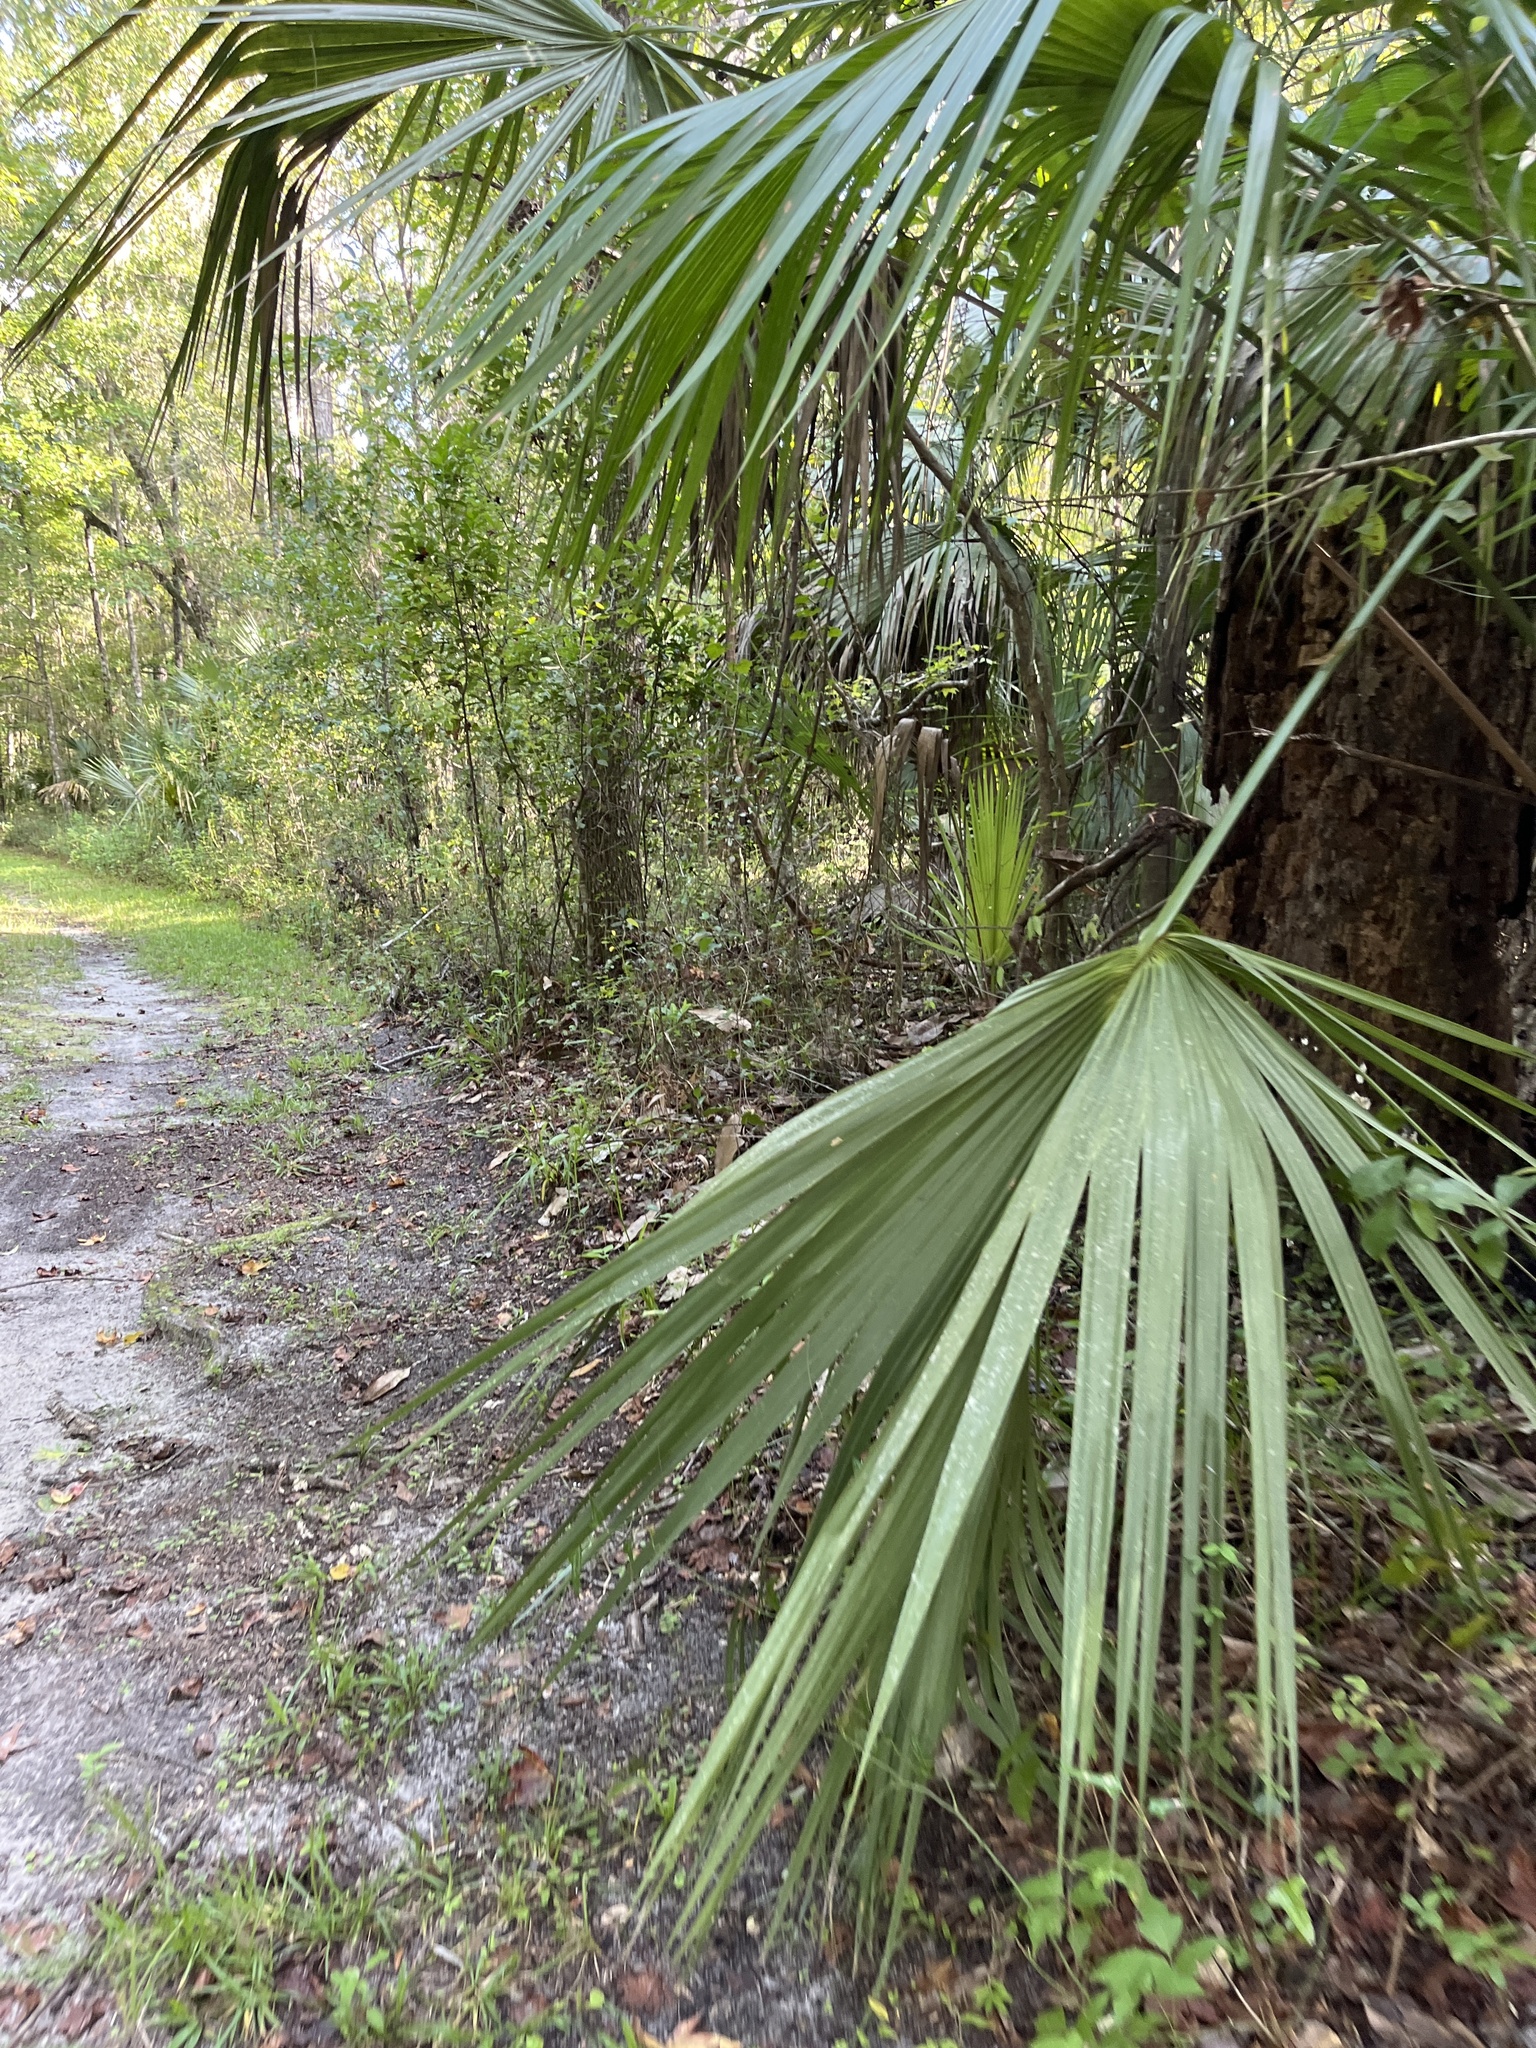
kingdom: Plantae
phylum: Tracheophyta
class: Liliopsida
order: Arecales
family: Arecaceae
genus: Sabal
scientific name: Sabal palmetto
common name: Blue palmetto
